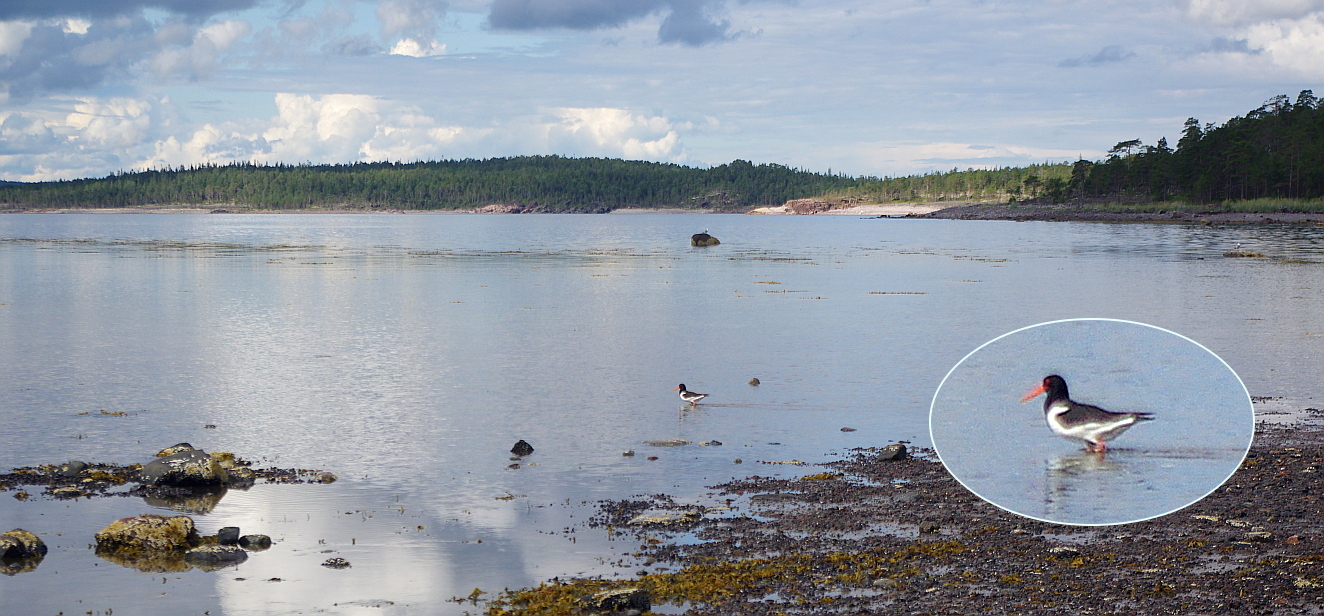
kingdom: Animalia
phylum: Chordata
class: Aves
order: Charadriiformes
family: Haematopodidae
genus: Haematopus
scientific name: Haematopus ostralegus
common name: Eurasian oystercatcher
